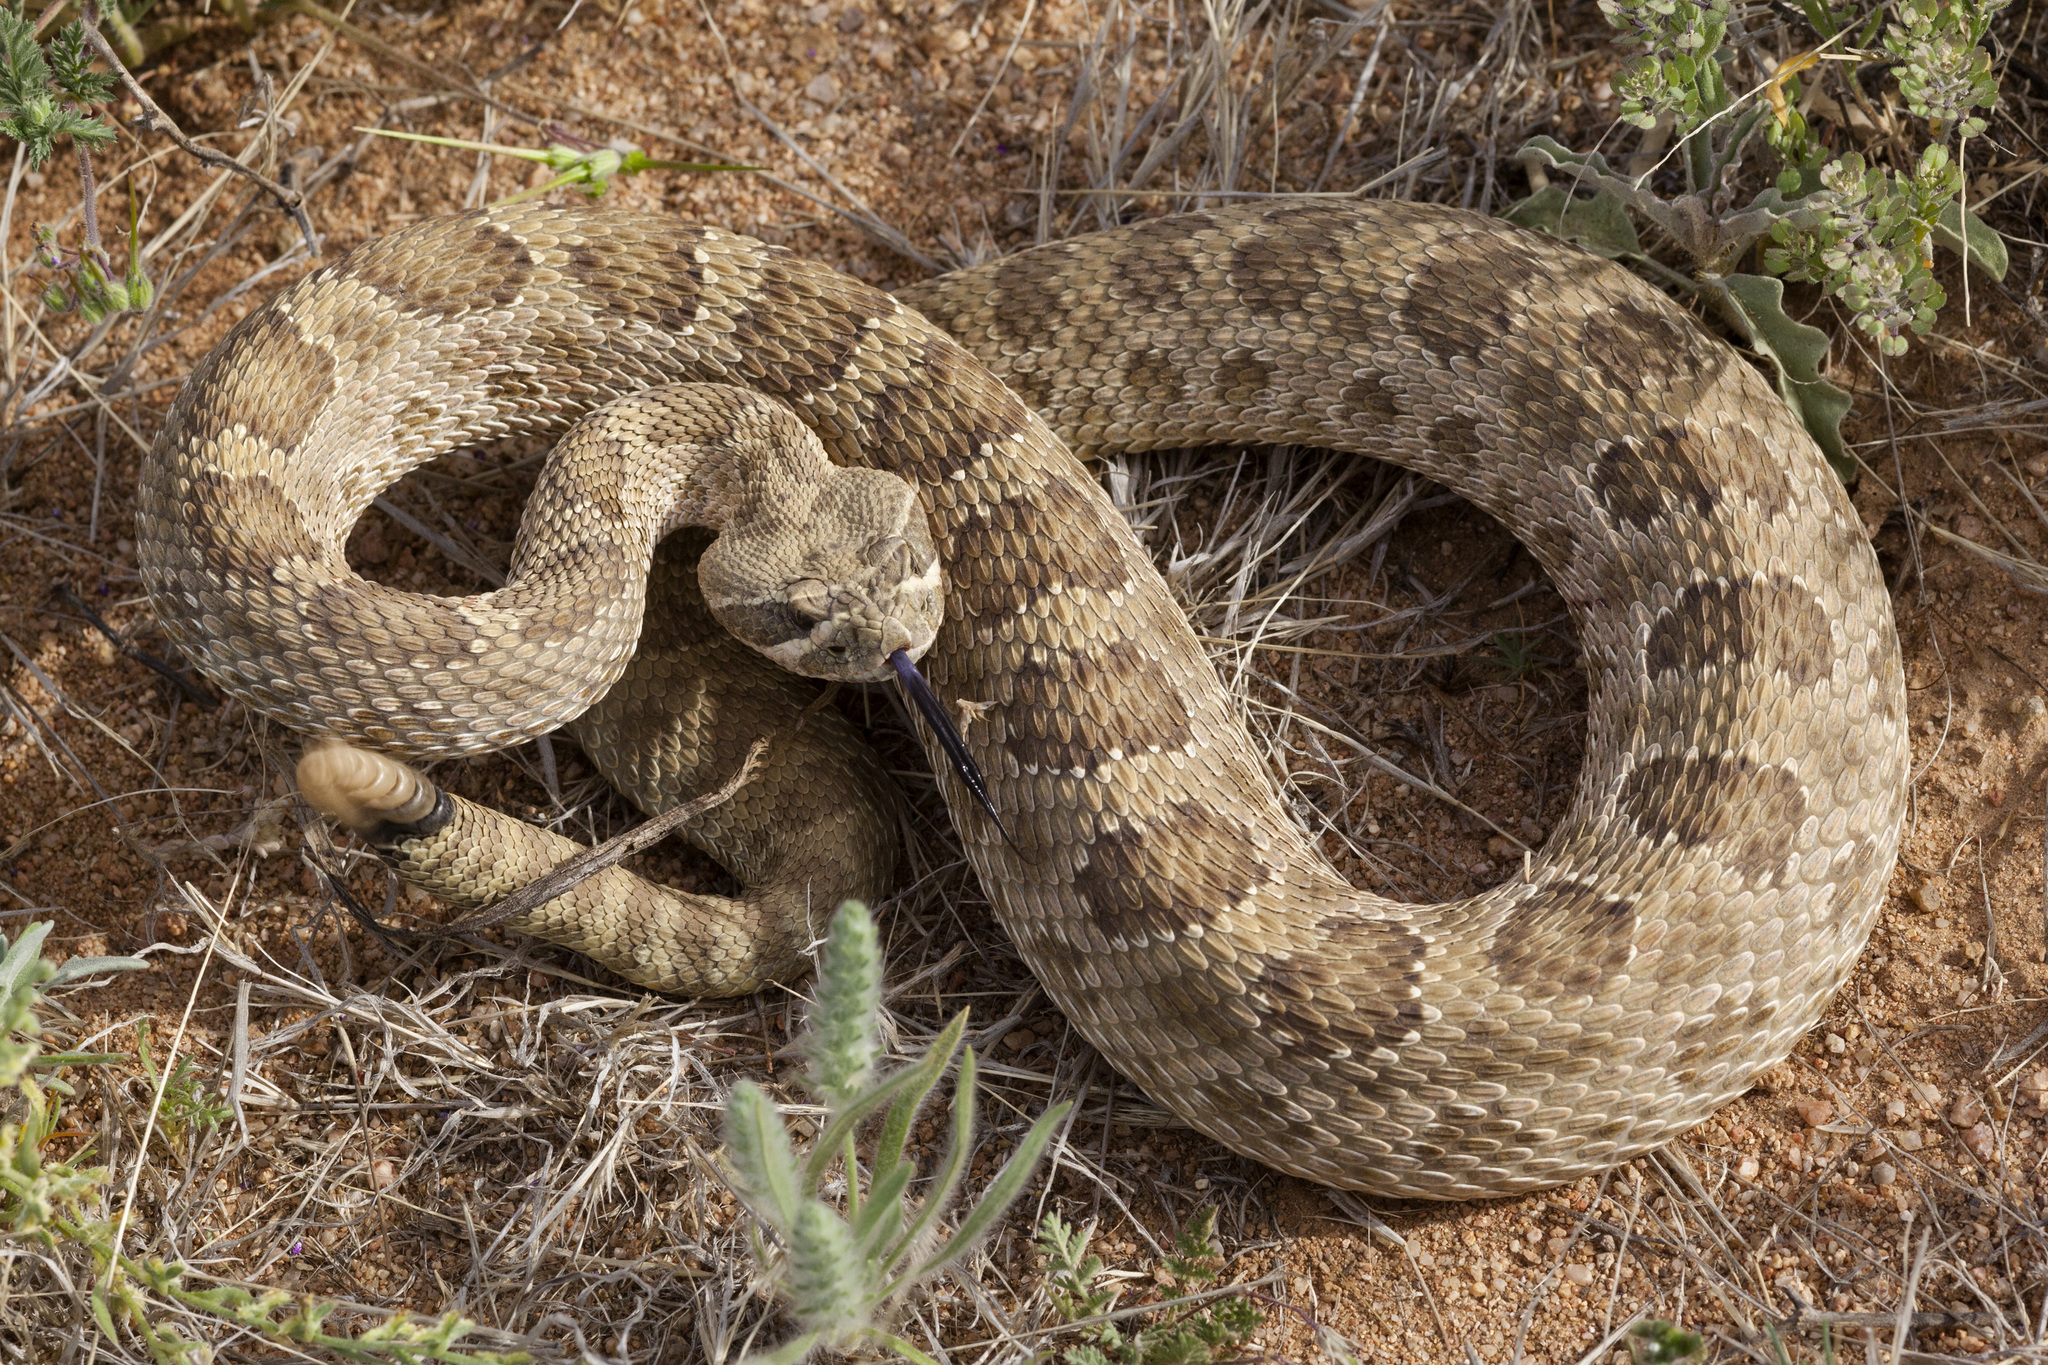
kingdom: Animalia
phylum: Chordata
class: Squamata
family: Viperidae
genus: Crotalus
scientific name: Crotalus viridis
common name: Prairie rattlesnake
